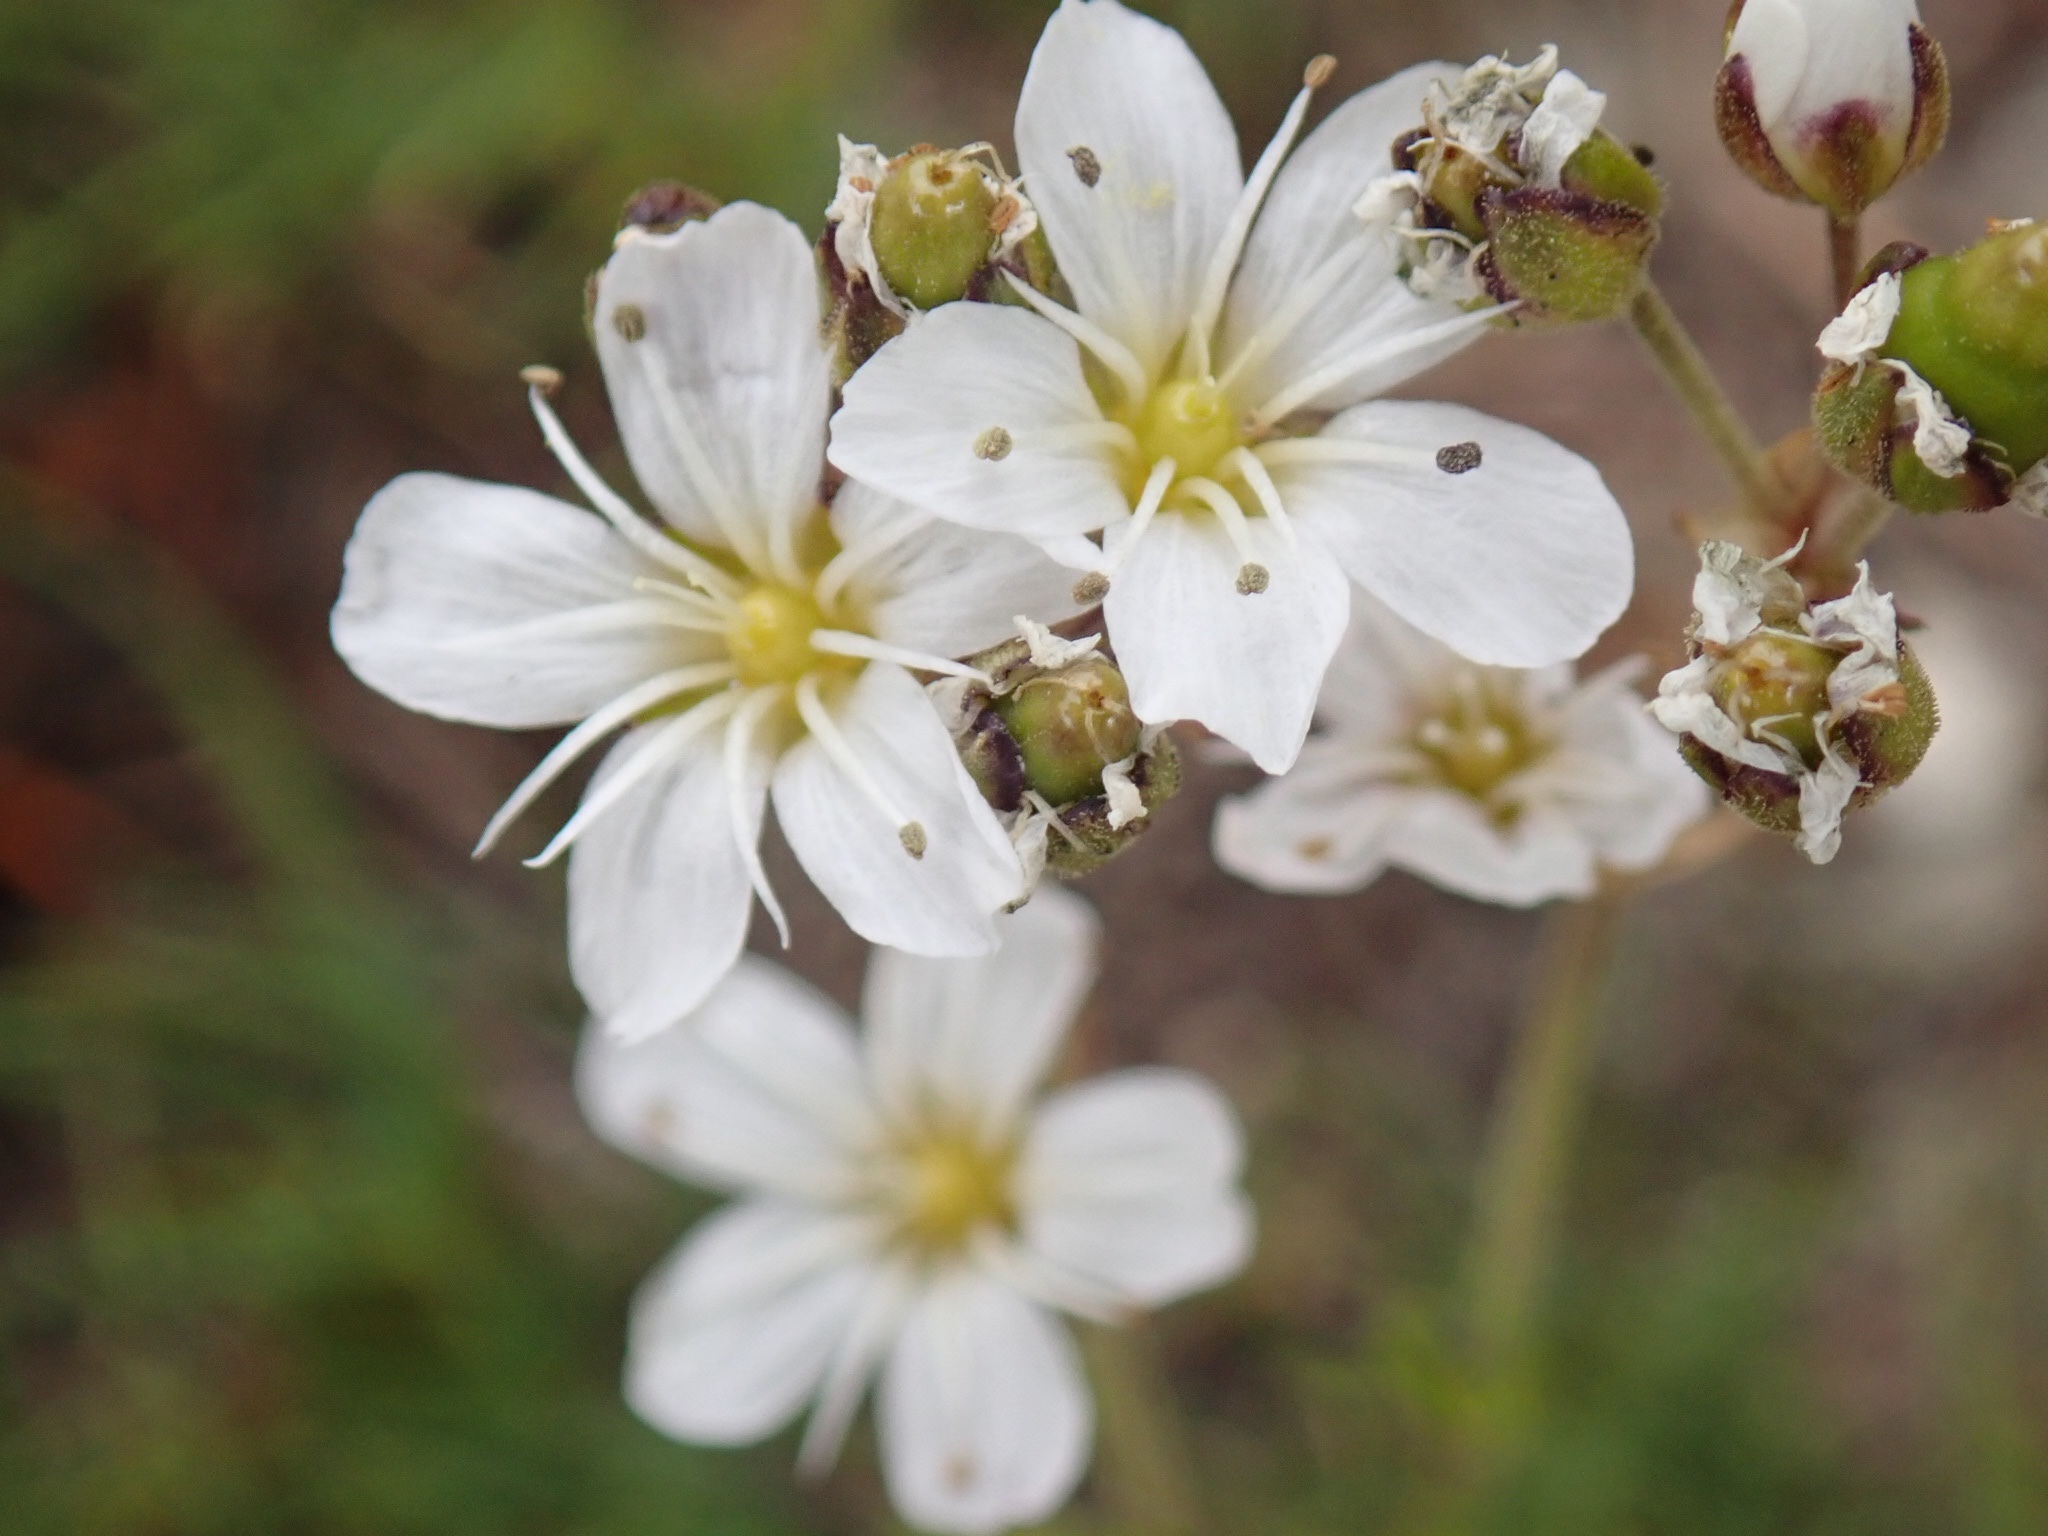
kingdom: Plantae
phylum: Tracheophyta
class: Magnoliopsida
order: Caryophyllales
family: Caryophyllaceae
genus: Eremogone
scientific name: Eremogone capillaris
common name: Slender mountain sandwort
